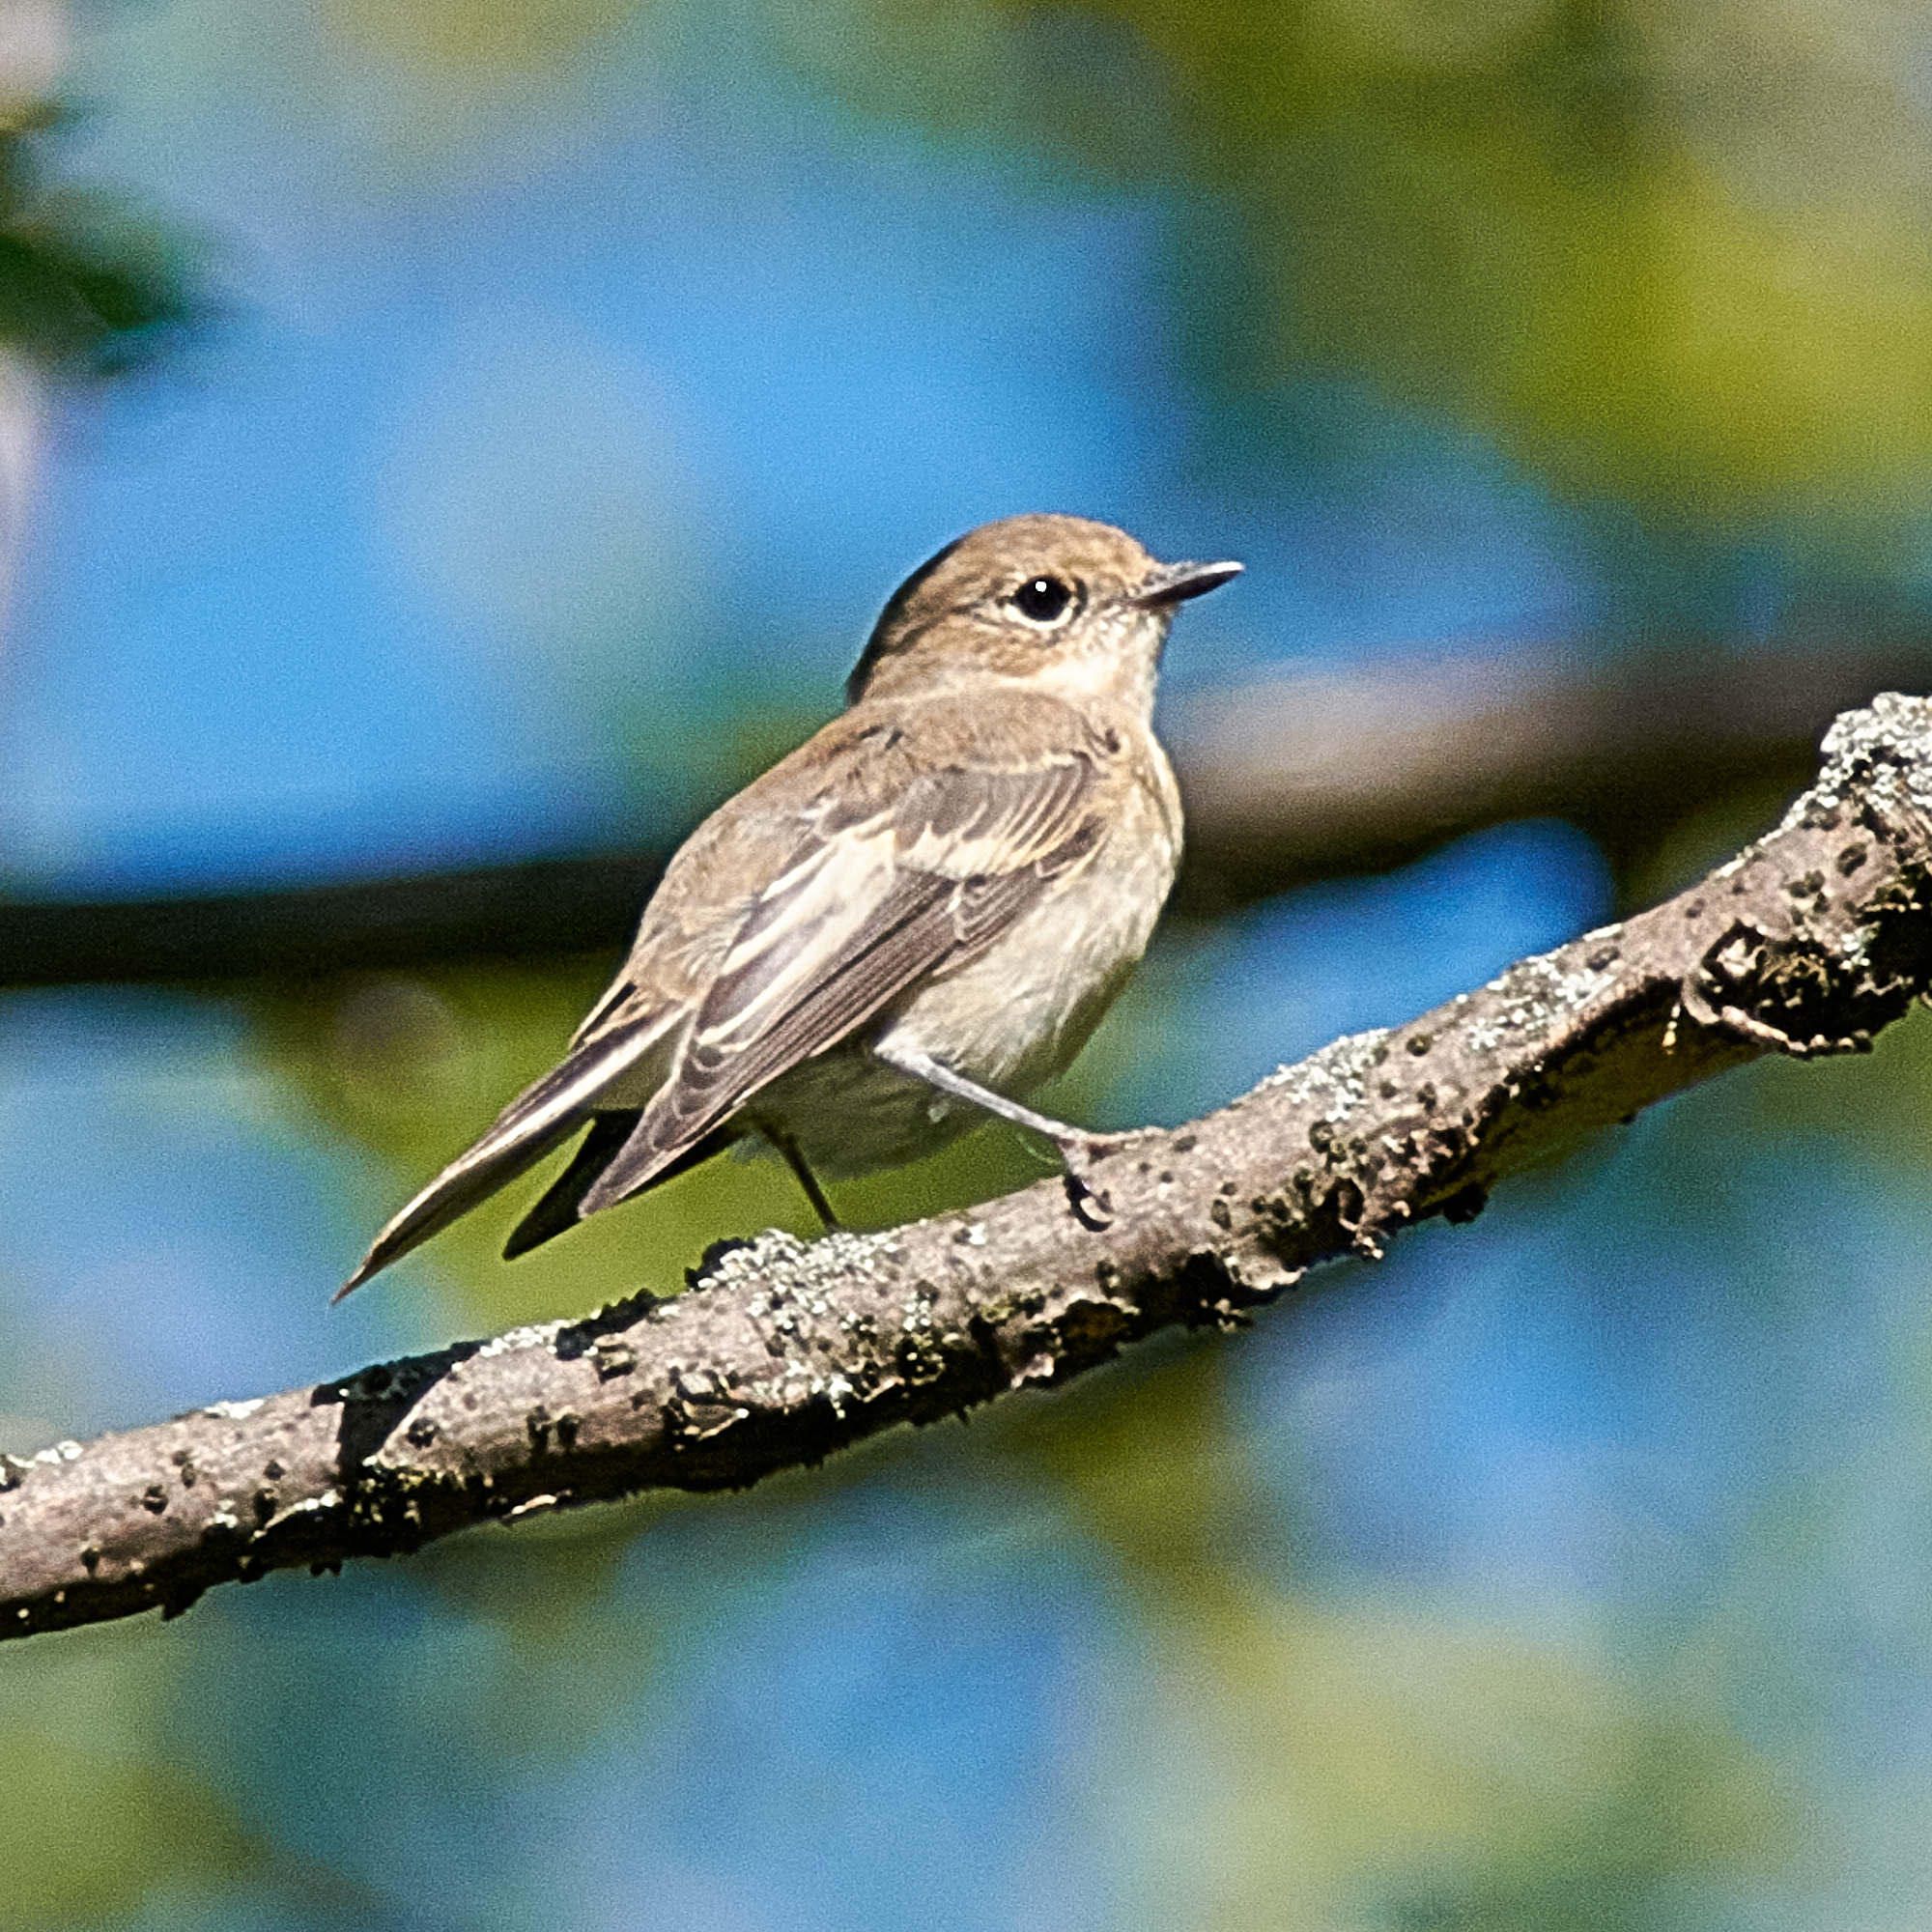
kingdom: Animalia
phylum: Chordata
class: Aves
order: Passeriformes
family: Muscicapidae
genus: Ficedula
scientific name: Ficedula hypoleuca
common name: European pied flycatcher
